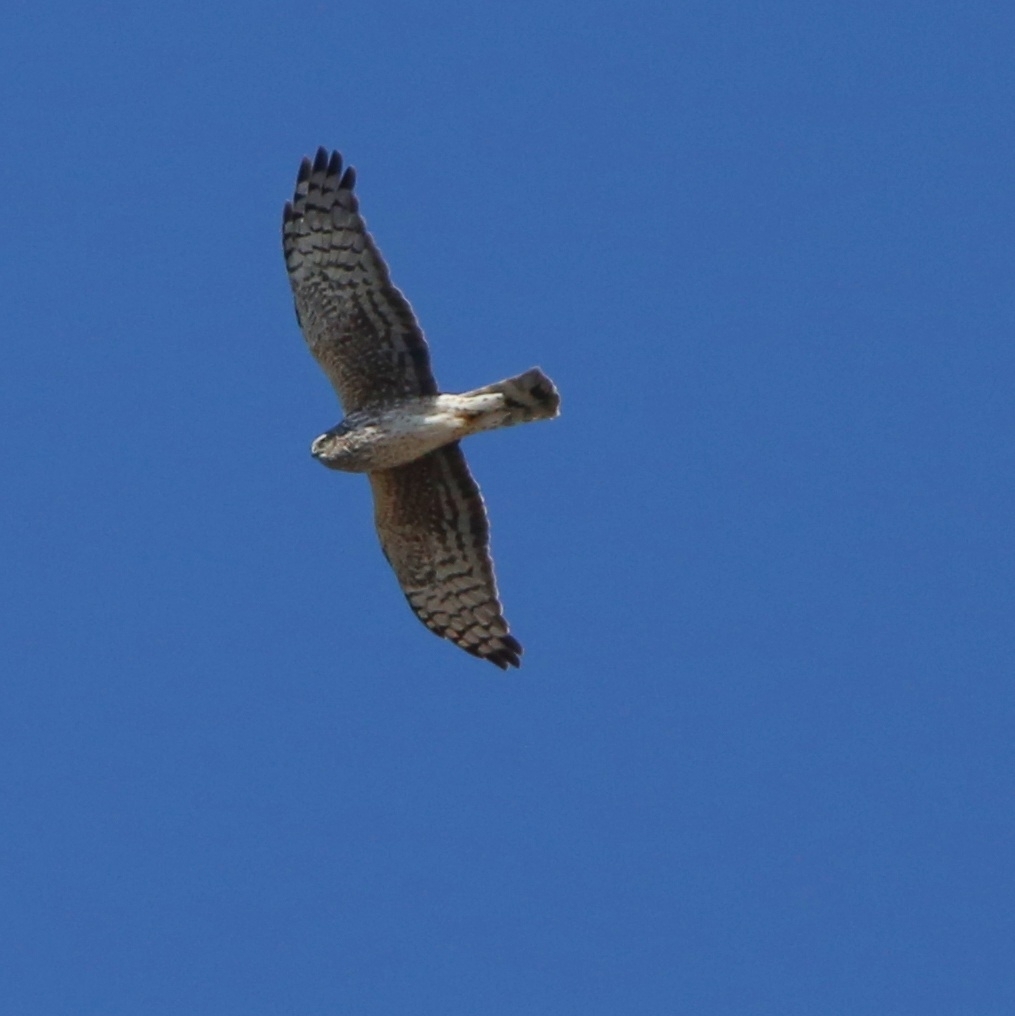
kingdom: Animalia
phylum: Chordata
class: Aves
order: Accipitriformes
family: Accipitridae
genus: Circus
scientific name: Circus cyaneus
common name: Hen harrier
